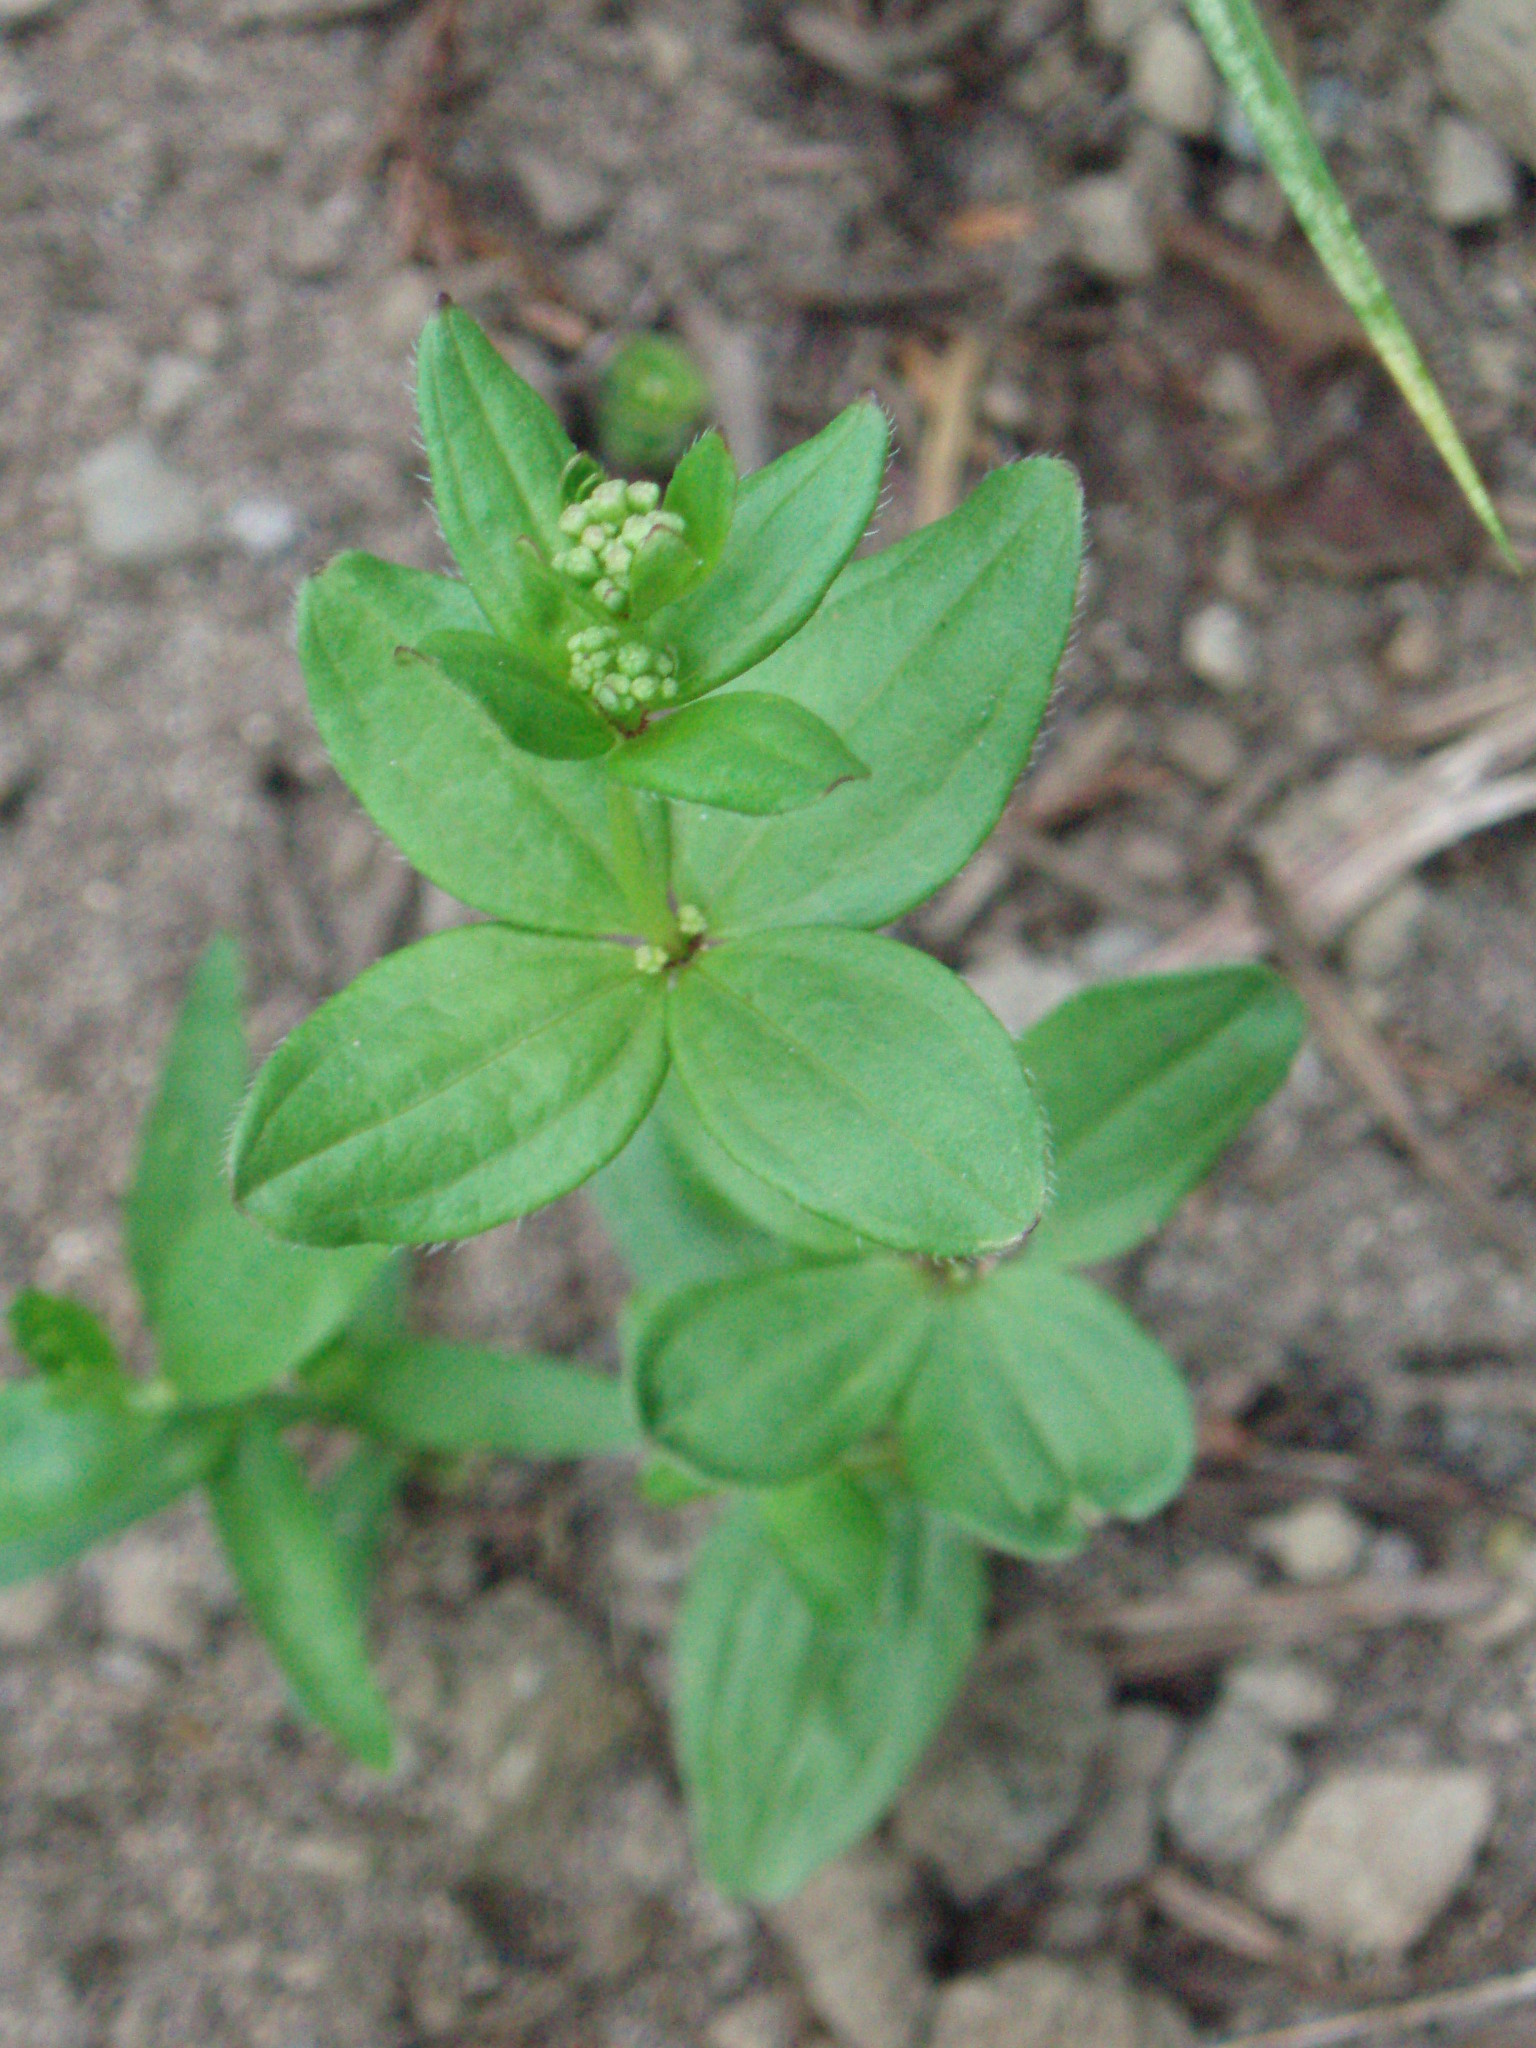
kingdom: Plantae
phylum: Tracheophyta
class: Magnoliopsida
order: Gentianales
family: Rubiaceae
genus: Galium
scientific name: Galium oreganum
